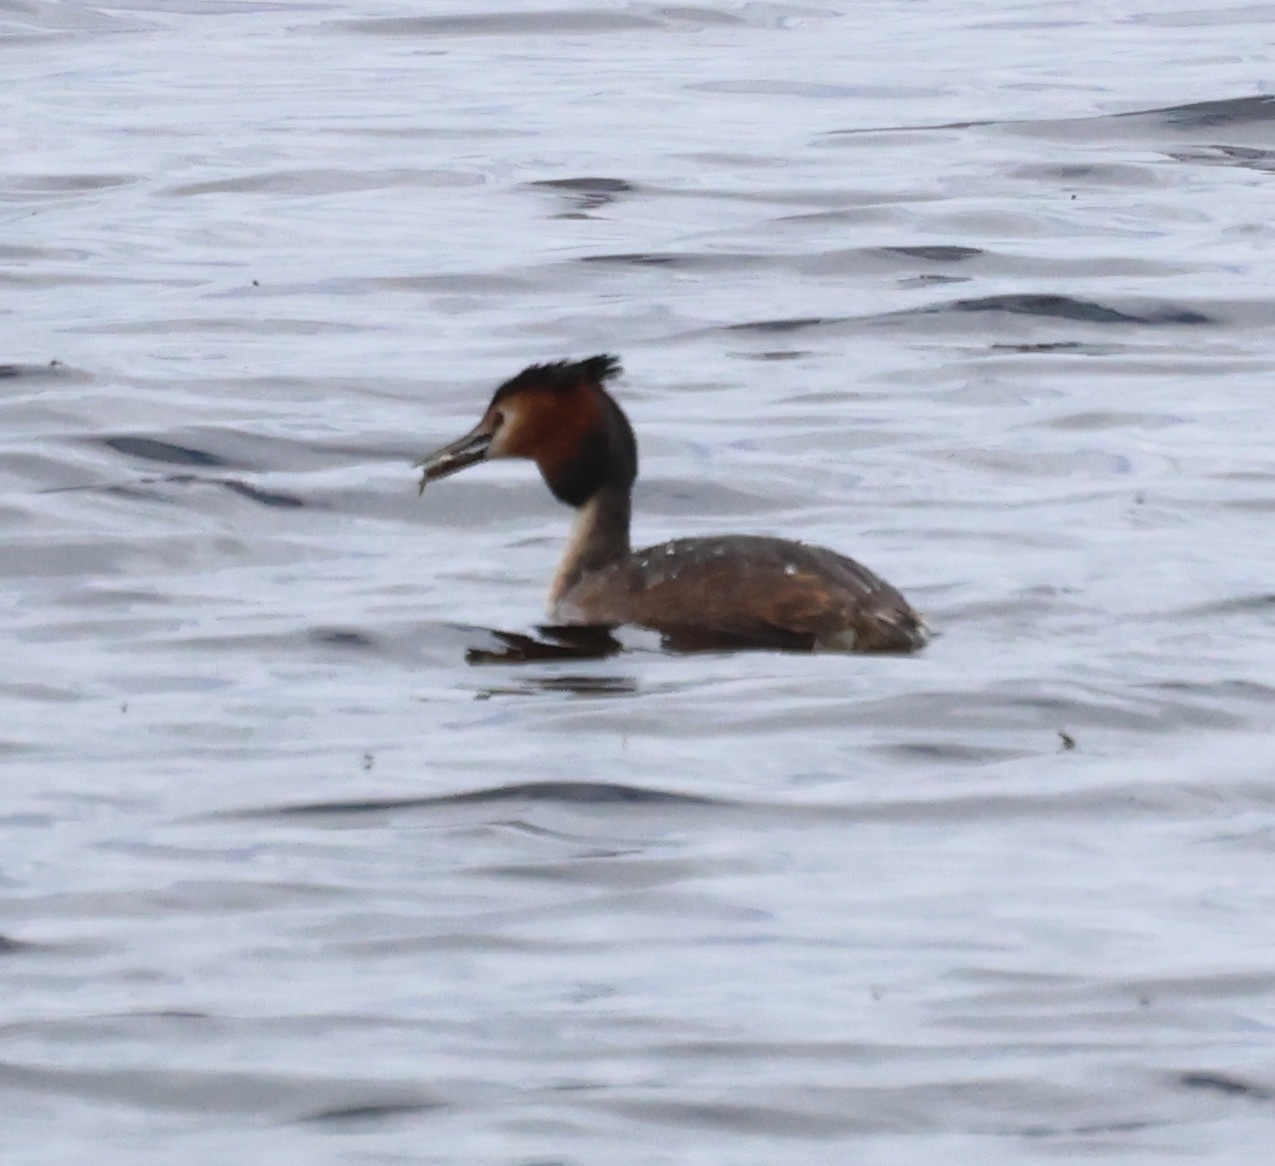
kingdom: Animalia
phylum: Chordata
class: Aves
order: Podicipediformes
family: Podicipedidae
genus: Podiceps
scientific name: Podiceps cristatus
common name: Great crested grebe
